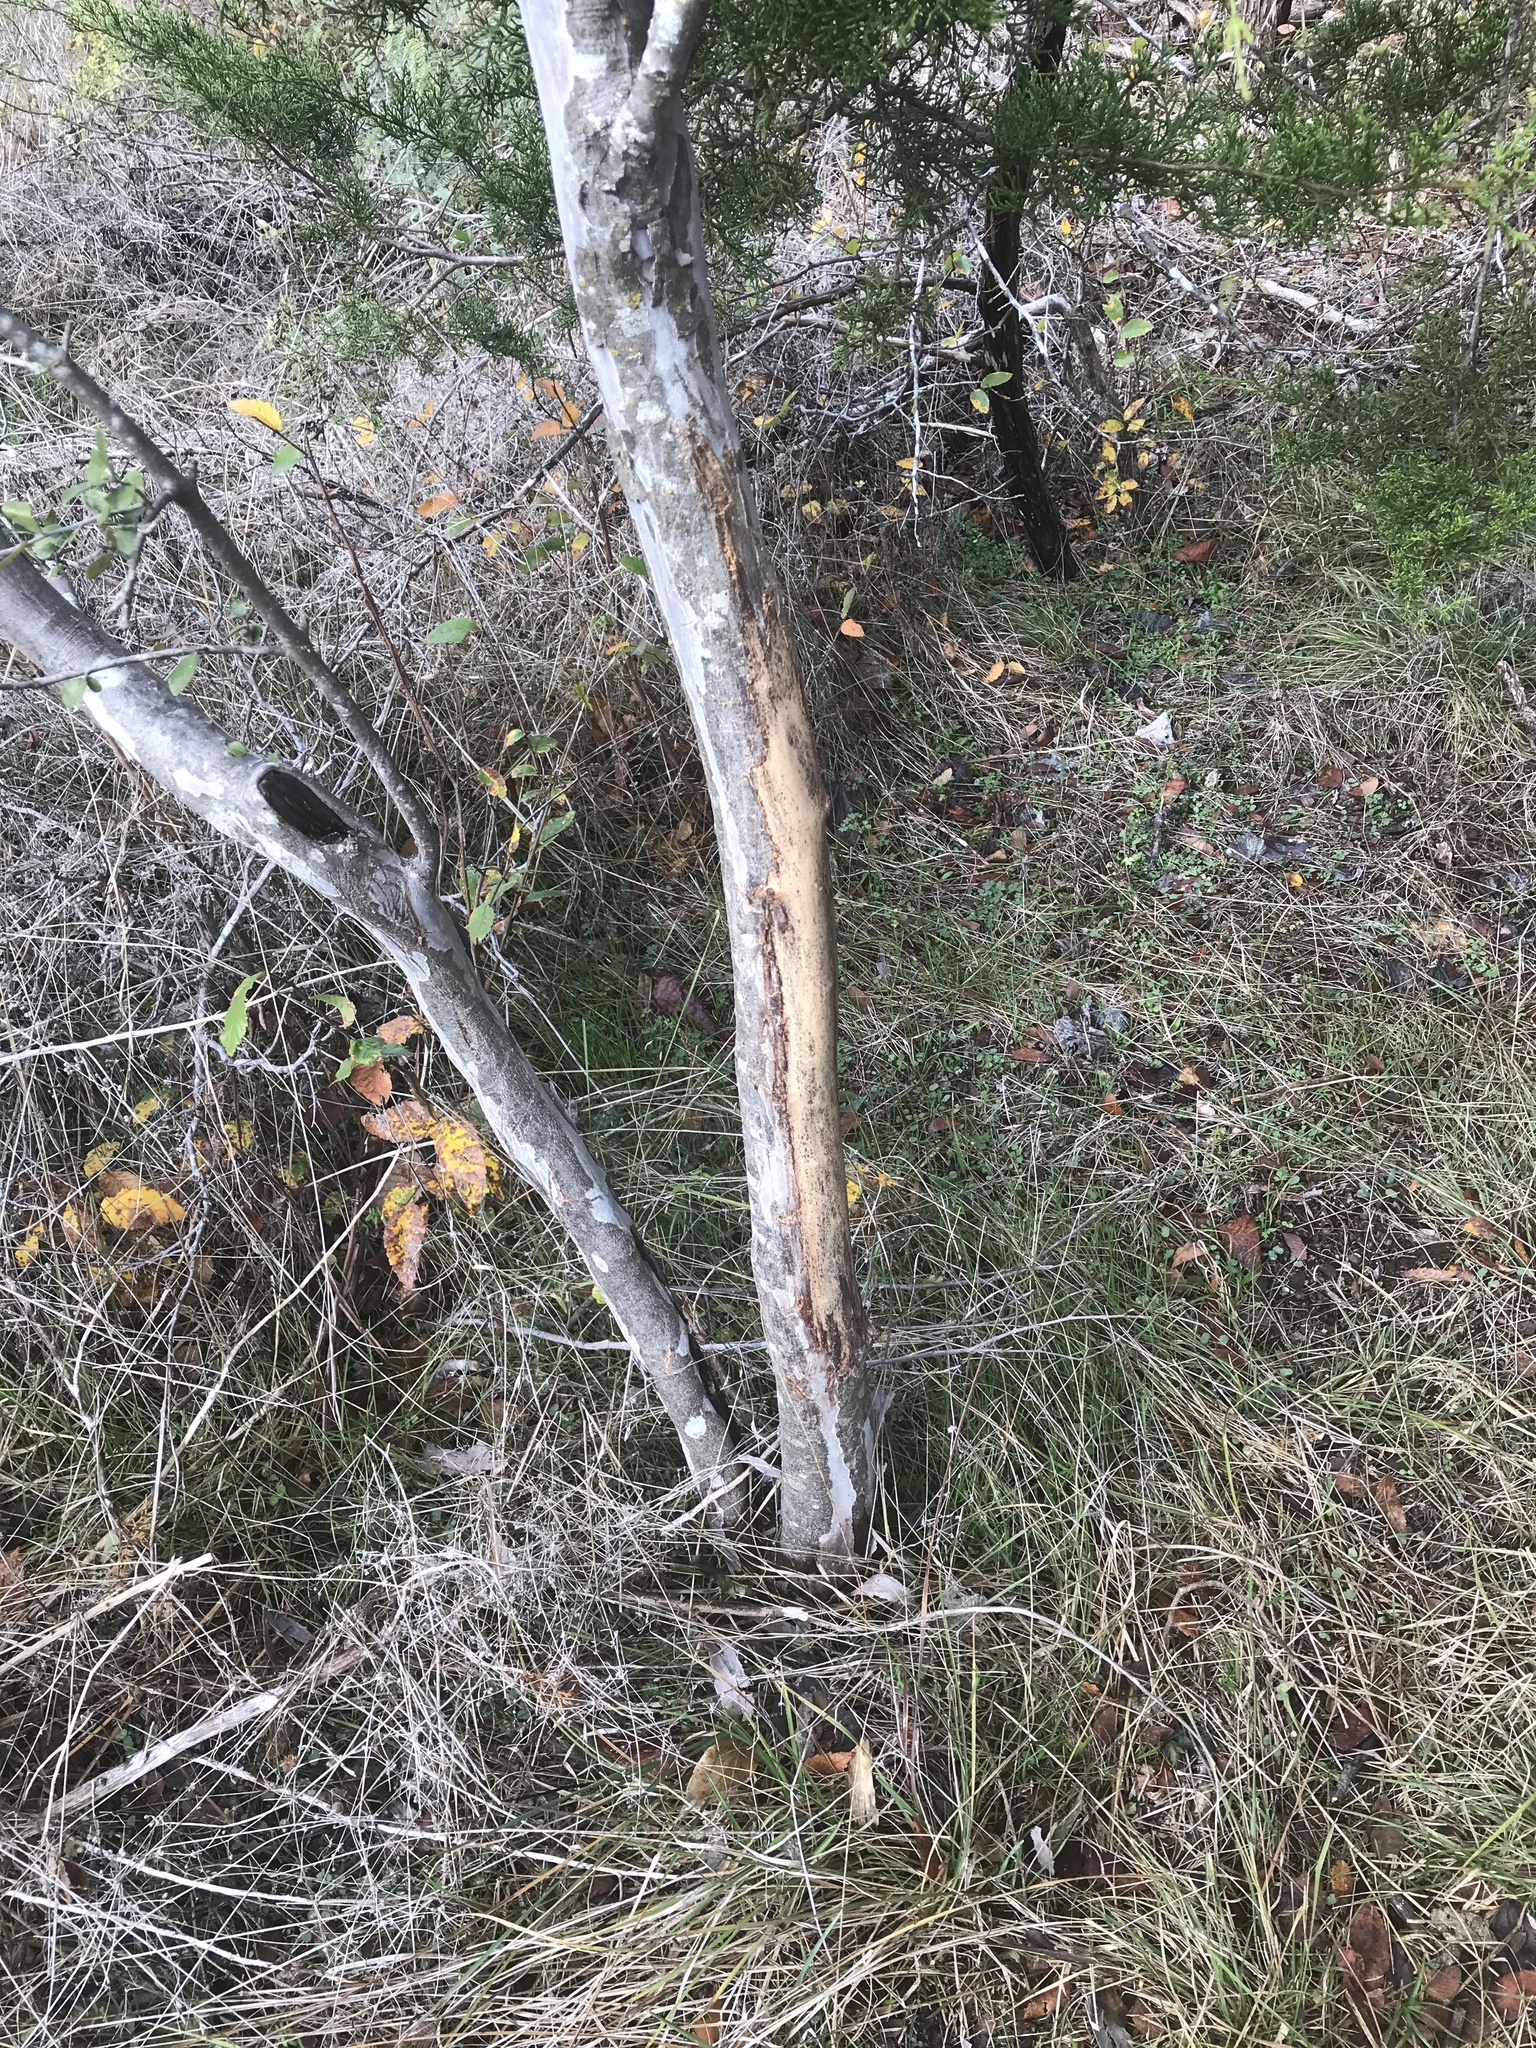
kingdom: Animalia
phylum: Chordata
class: Mammalia
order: Artiodactyla
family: Cervidae
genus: Odocoileus
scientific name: Odocoileus virginianus
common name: White-tailed deer
